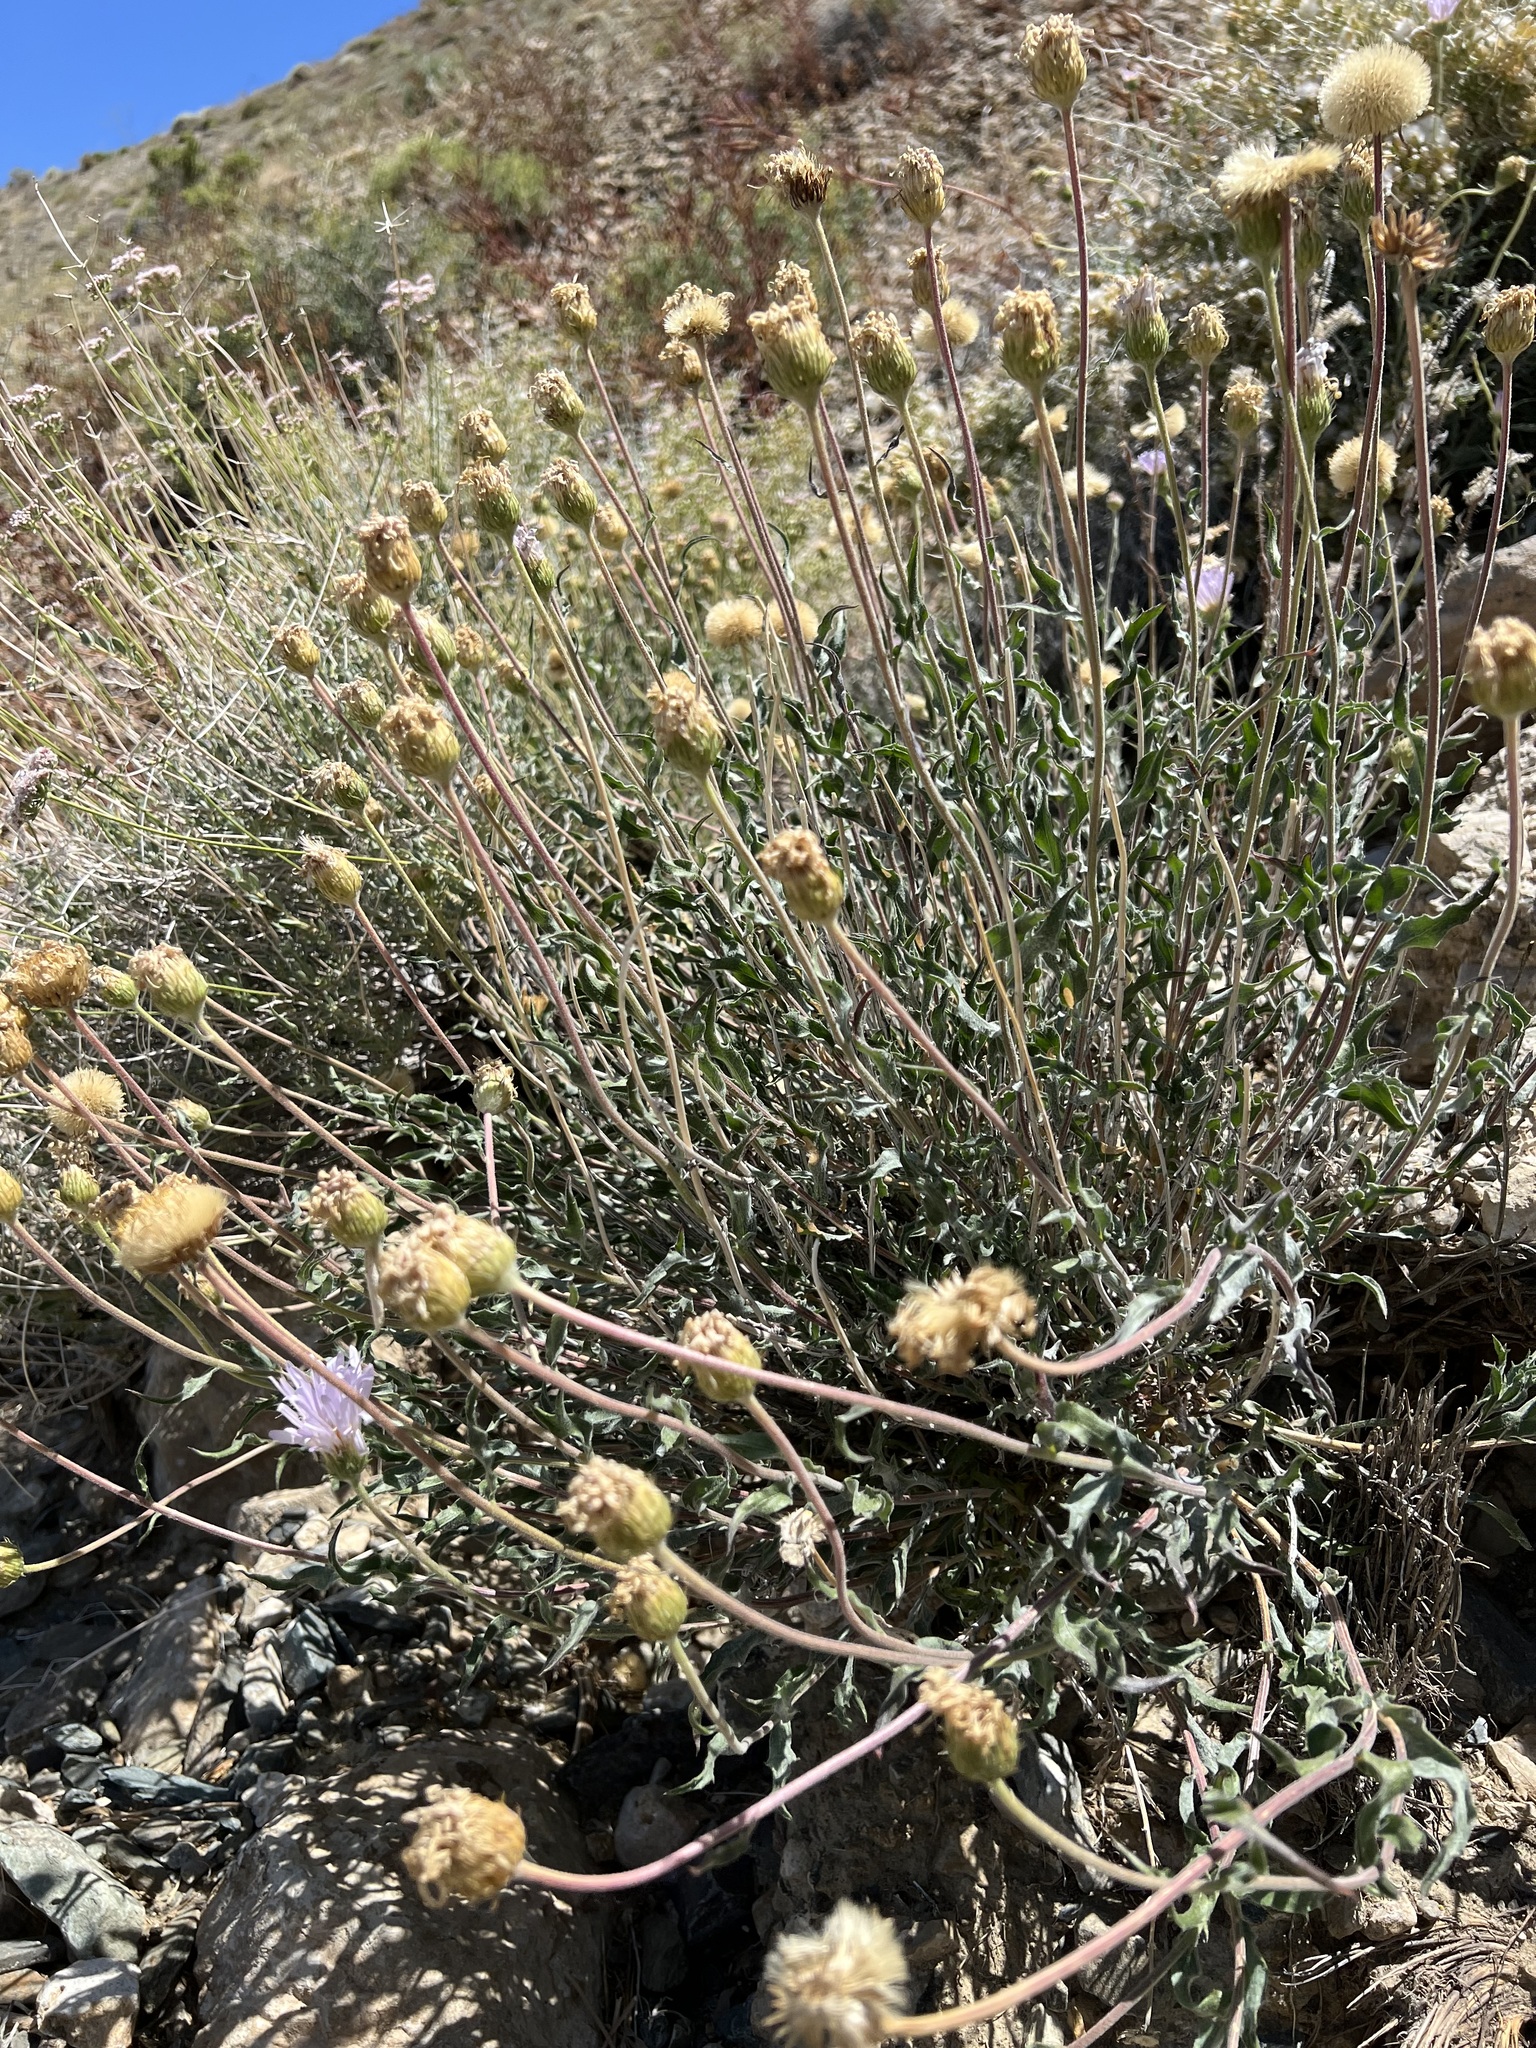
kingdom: Plantae
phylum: Tracheophyta
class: Magnoliopsida
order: Asterales
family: Asteraceae
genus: Xylorhiza
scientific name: Xylorhiza tortifolia
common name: Hurt-leaf woody-aster
